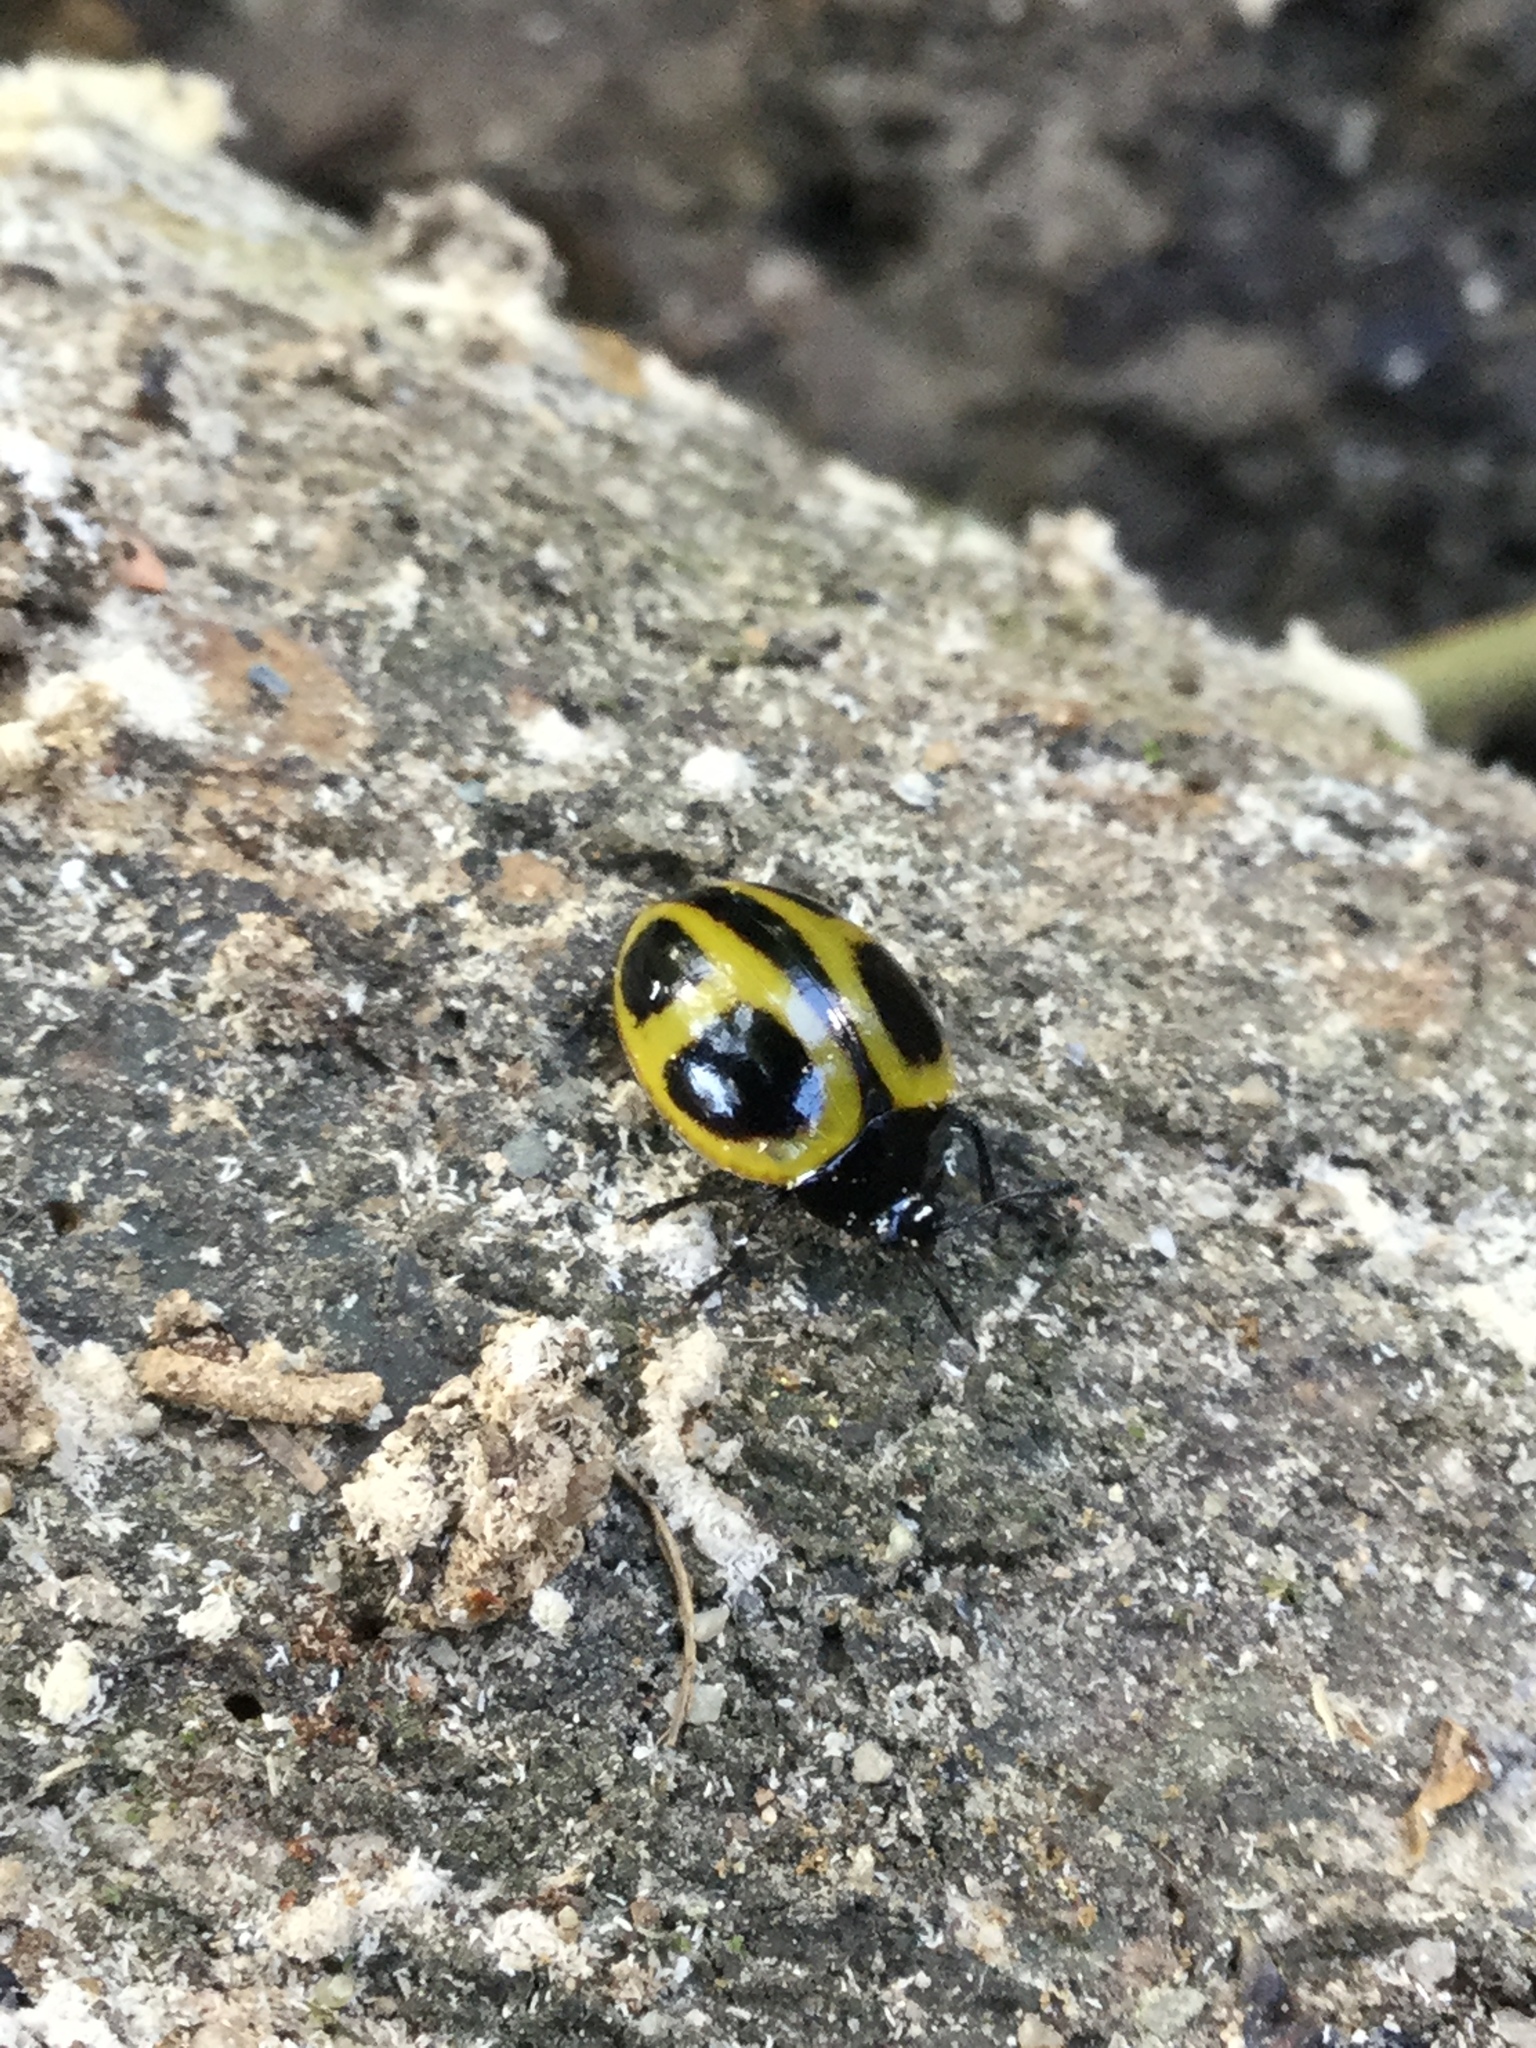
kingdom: Animalia
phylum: Arthropoda
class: Insecta
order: Coleoptera
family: Erotylidae
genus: Aegithus
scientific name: Aegithus
